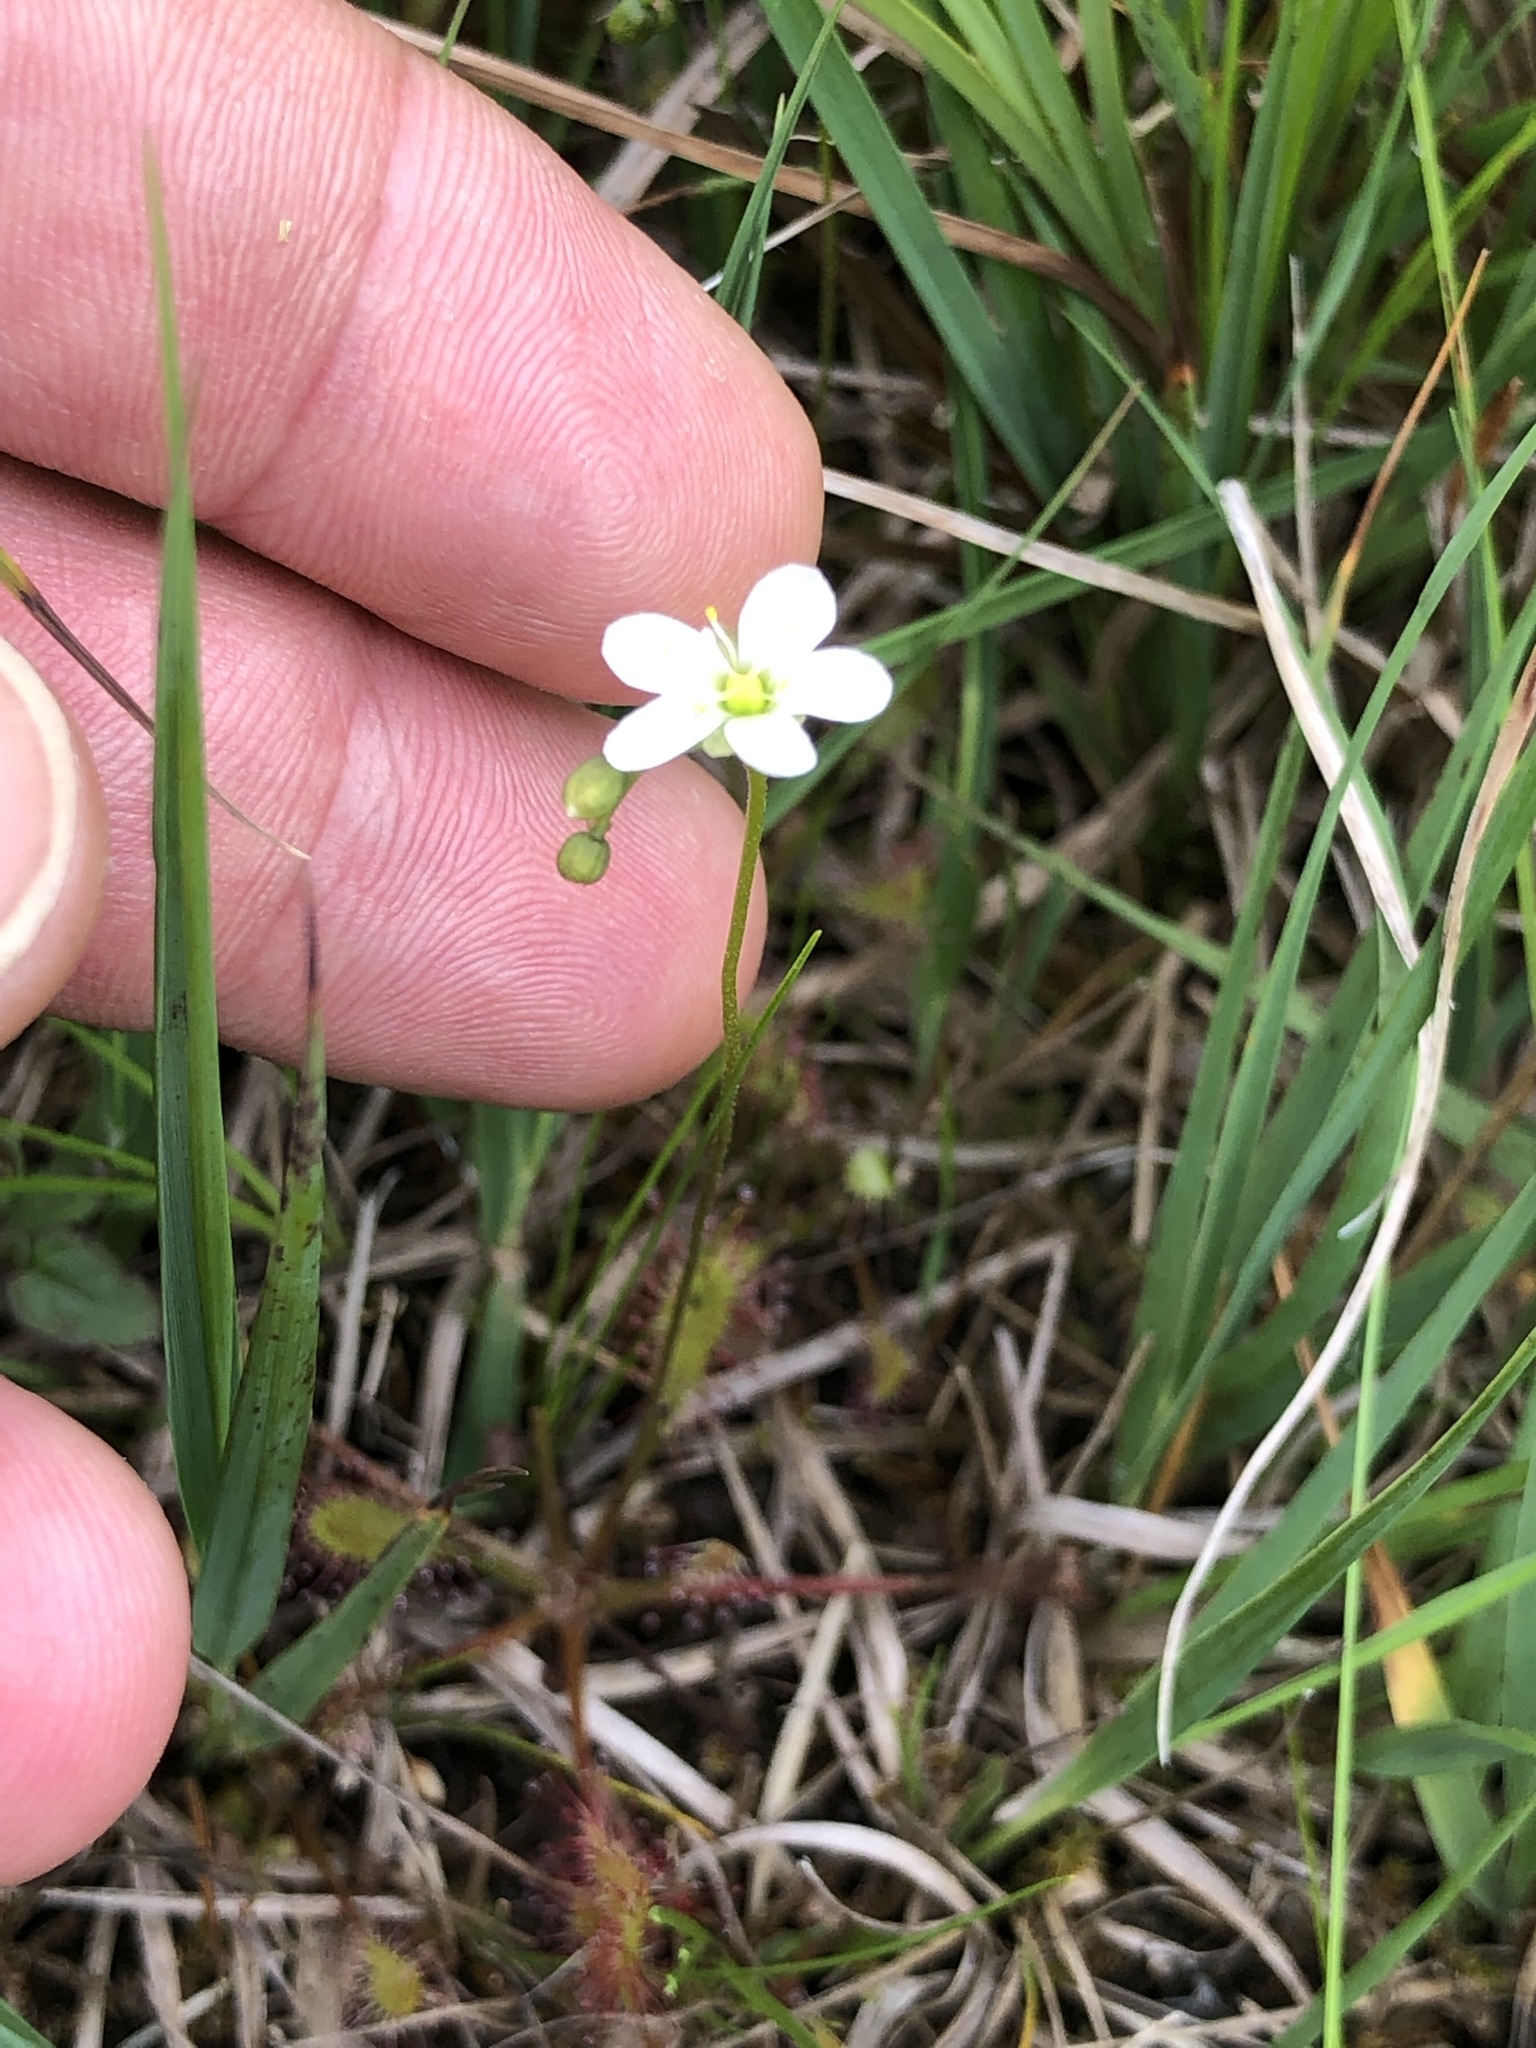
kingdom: Plantae
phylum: Tracheophyta
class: Magnoliopsida
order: Caryophyllales
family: Droseraceae
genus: Drosera
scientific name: Drosera anglica
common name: Great sundew
